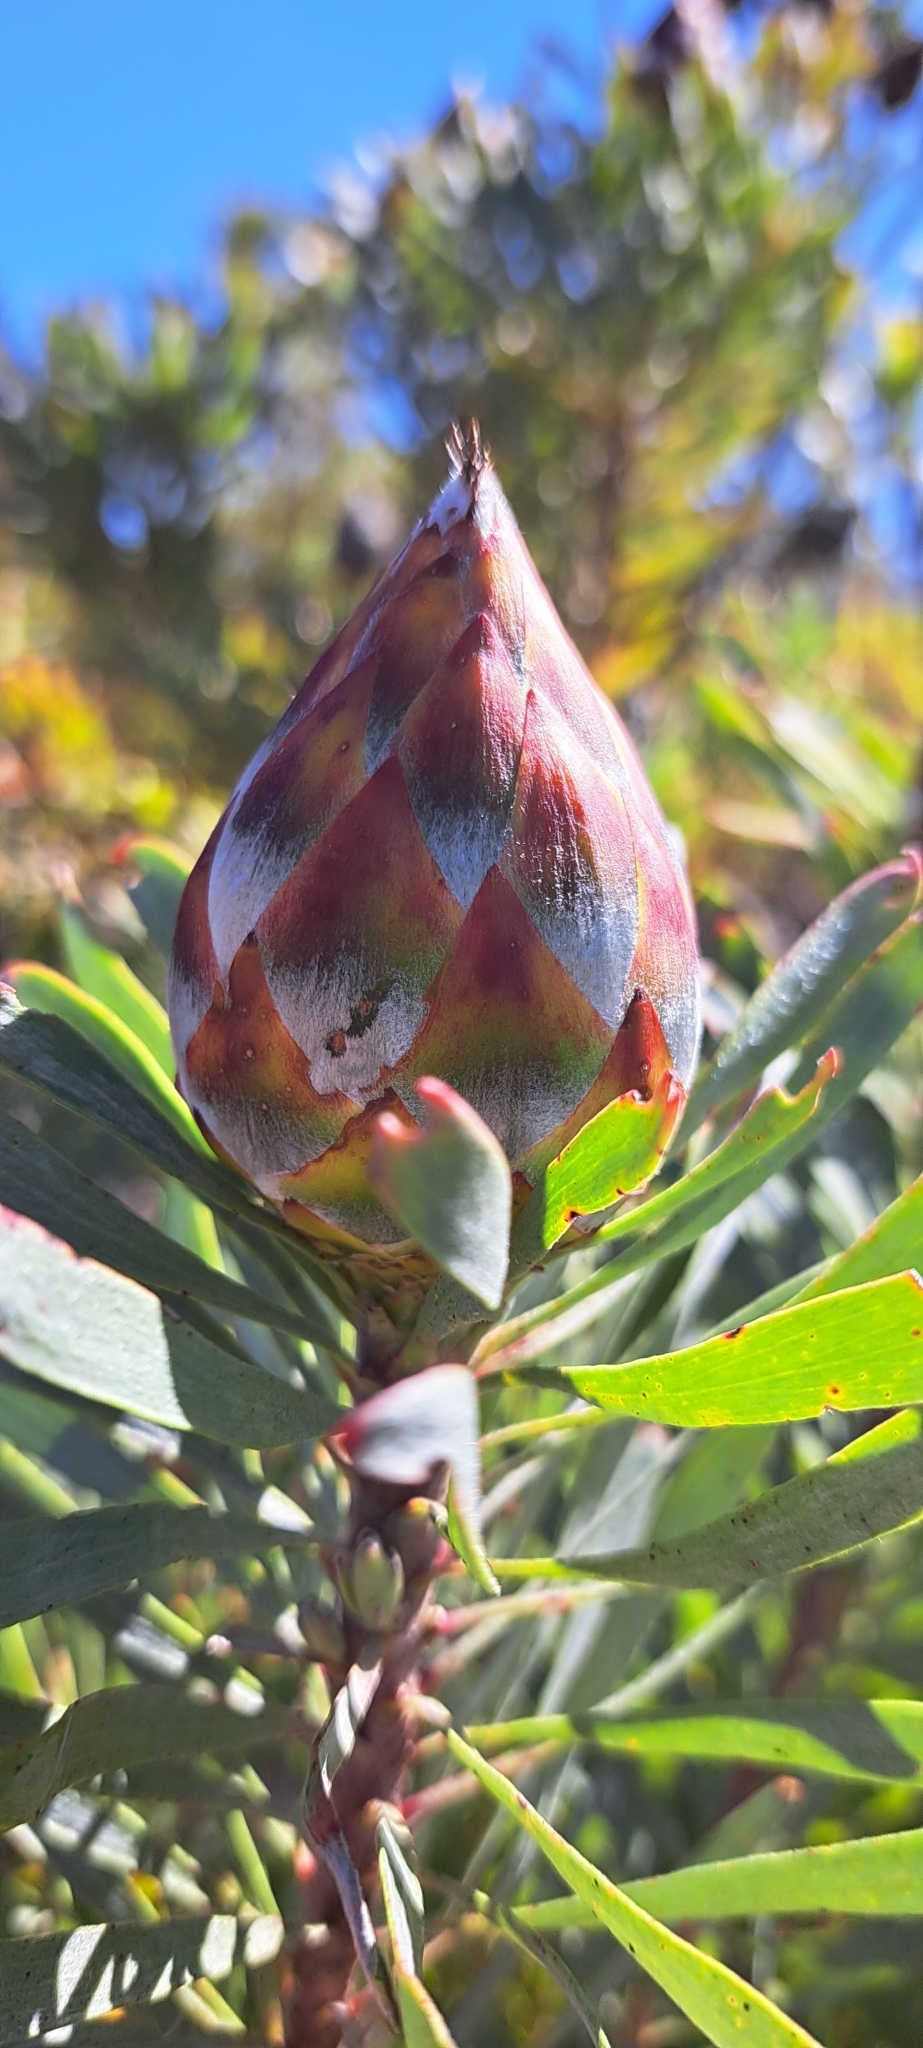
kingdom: Plantae
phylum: Tracheophyta
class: Magnoliopsida
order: Proteales
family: Proteaceae
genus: Leucadendron
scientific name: Leucadendron rubrum
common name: Spinning top
